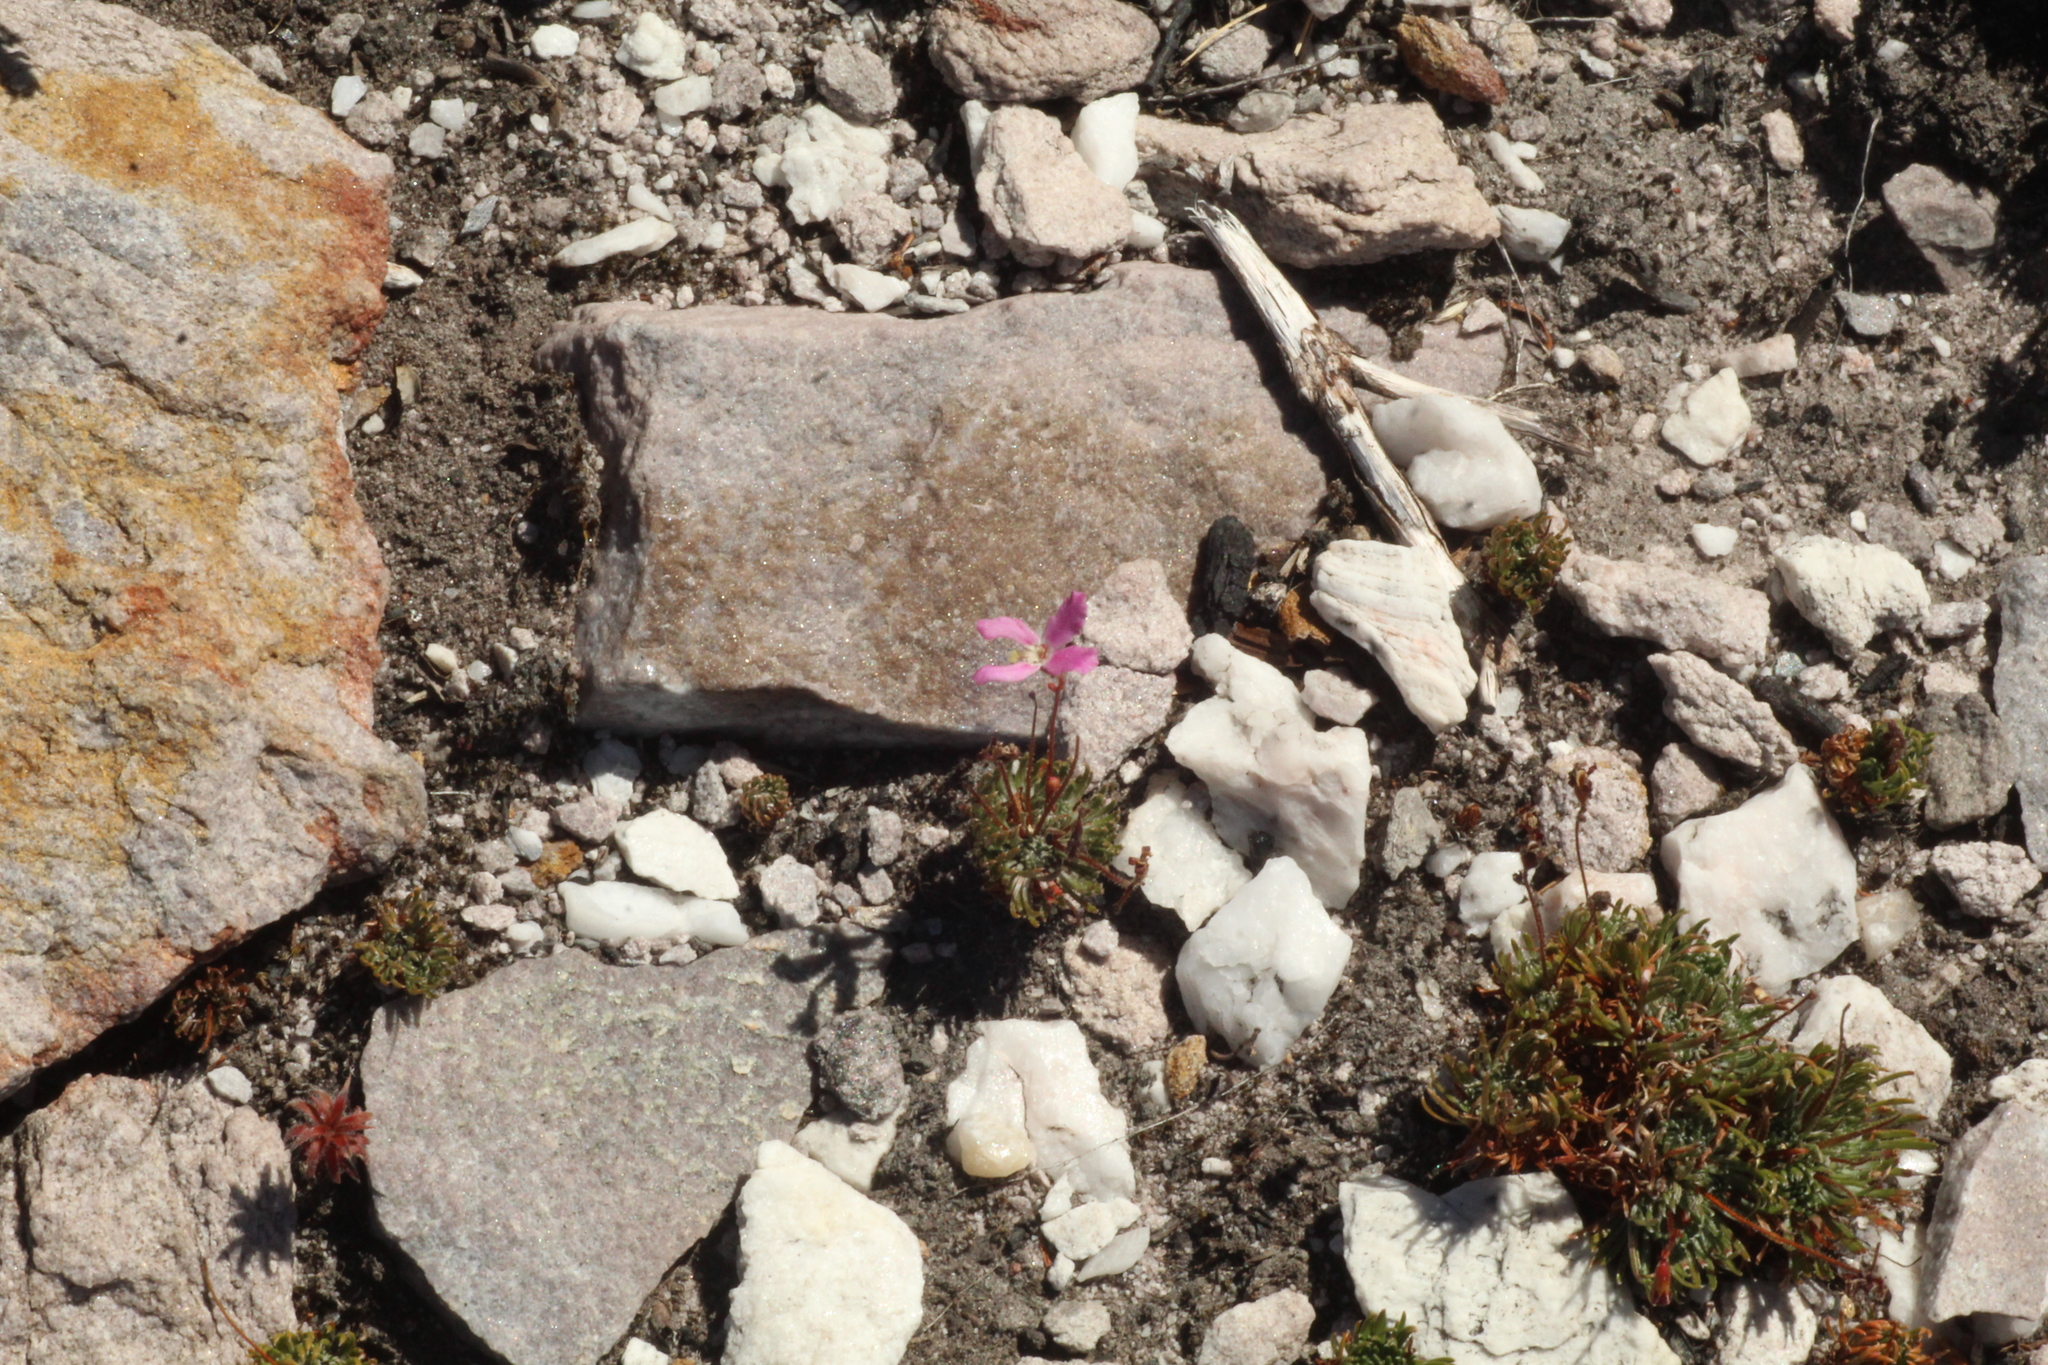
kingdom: Plantae
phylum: Tracheophyta
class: Magnoliopsida
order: Asterales
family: Stylidiaceae
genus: Stylidium
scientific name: Stylidium spinulosum
